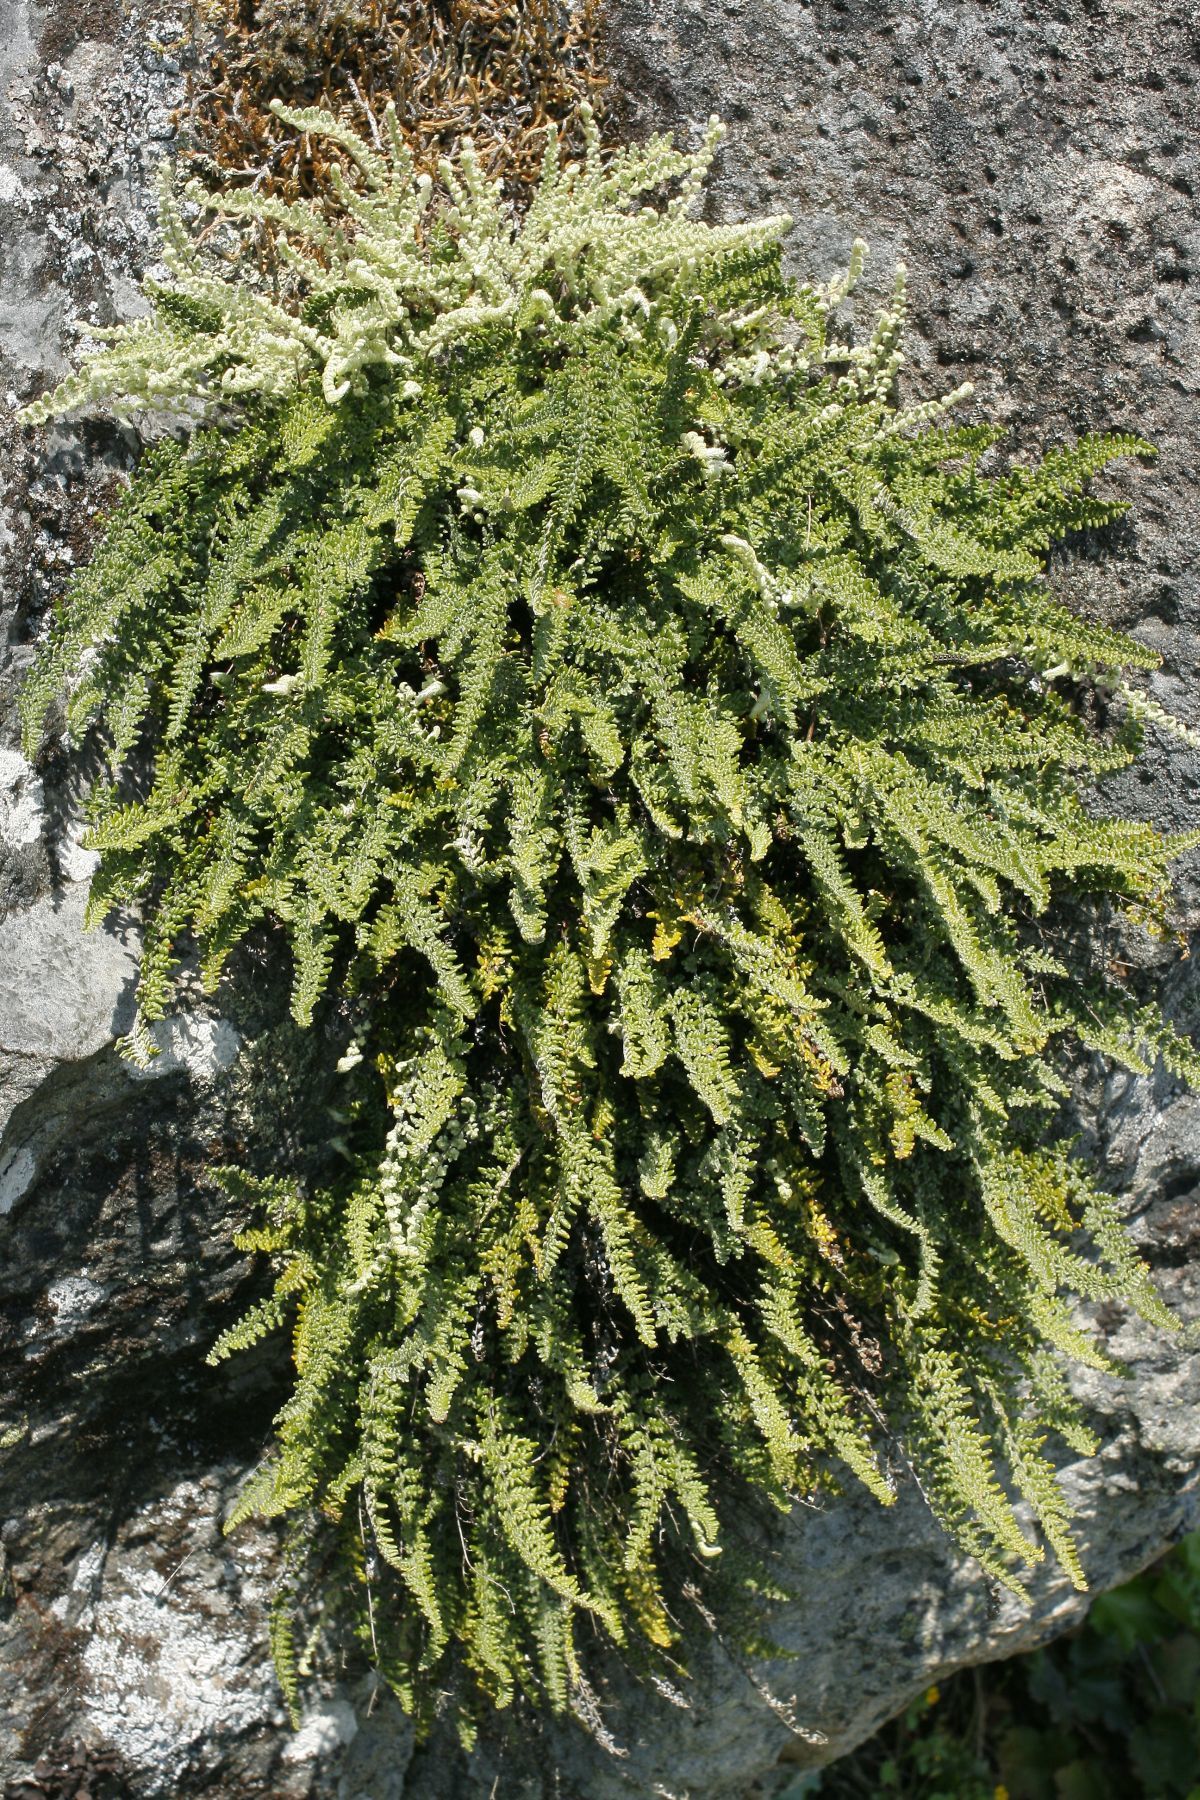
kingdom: Plantae
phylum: Tracheophyta
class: Polypodiopsida
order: Polypodiales
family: Pteridaceae
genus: Myriopteris
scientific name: Myriopteris gracillima
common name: Lace fern
